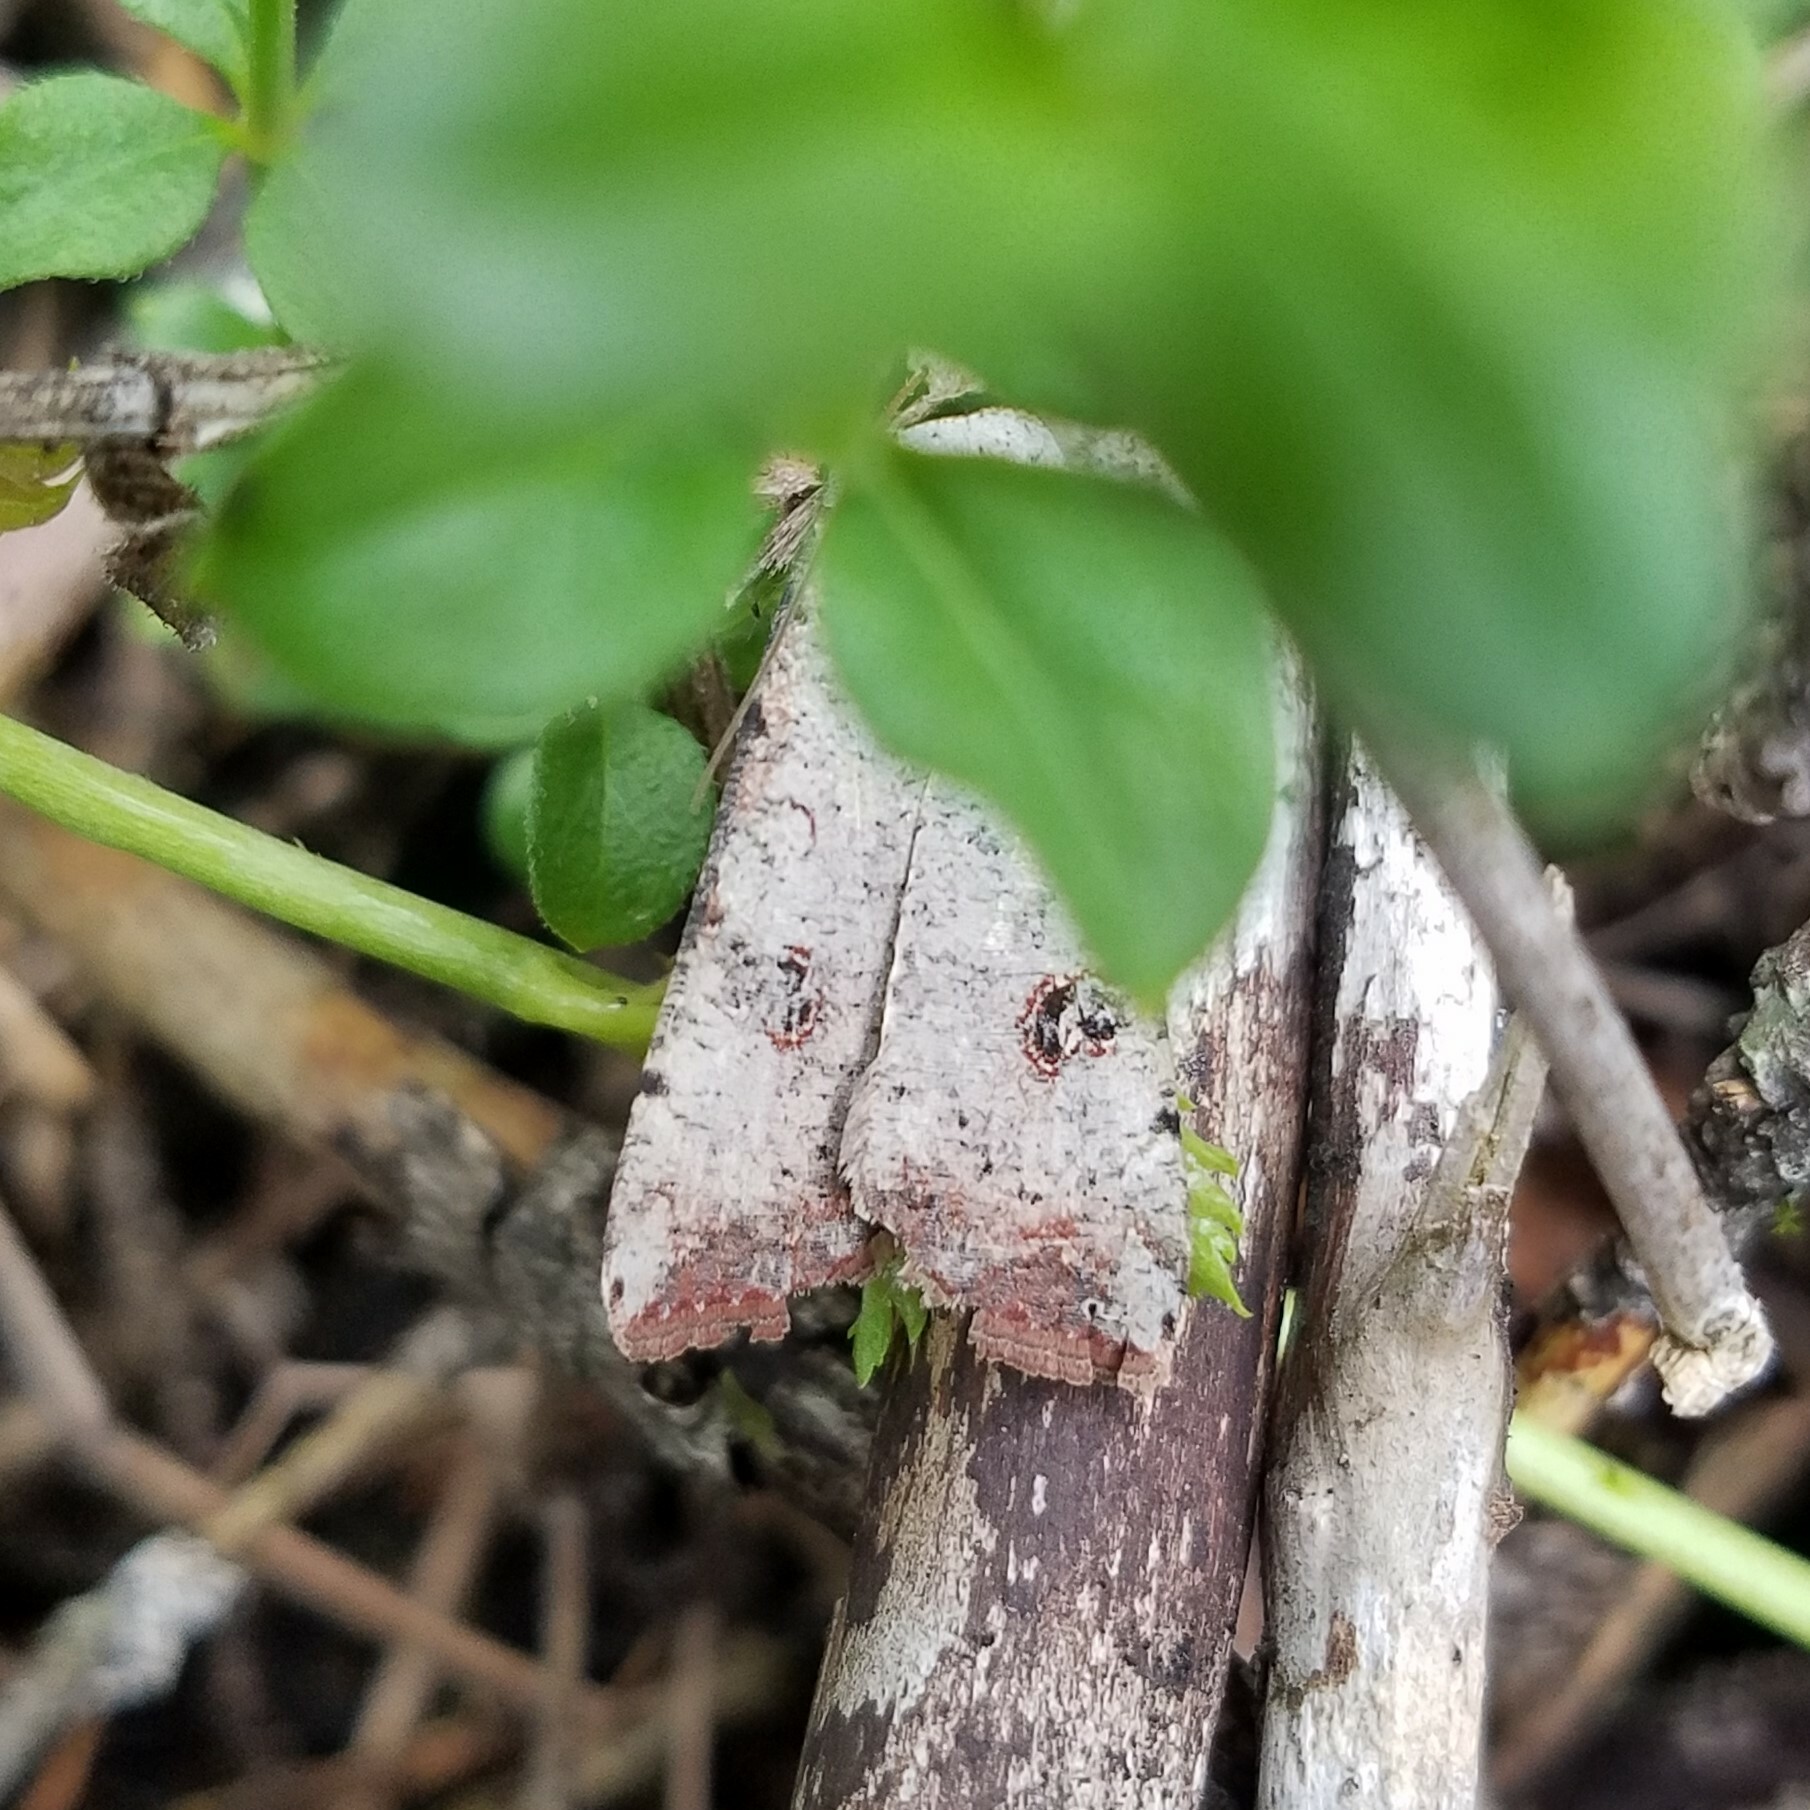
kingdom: Animalia
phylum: Arthropoda
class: Insecta
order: Lepidoptera
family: Noctuidae
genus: Anicla
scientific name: Anicla infecta
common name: Green cutworm
